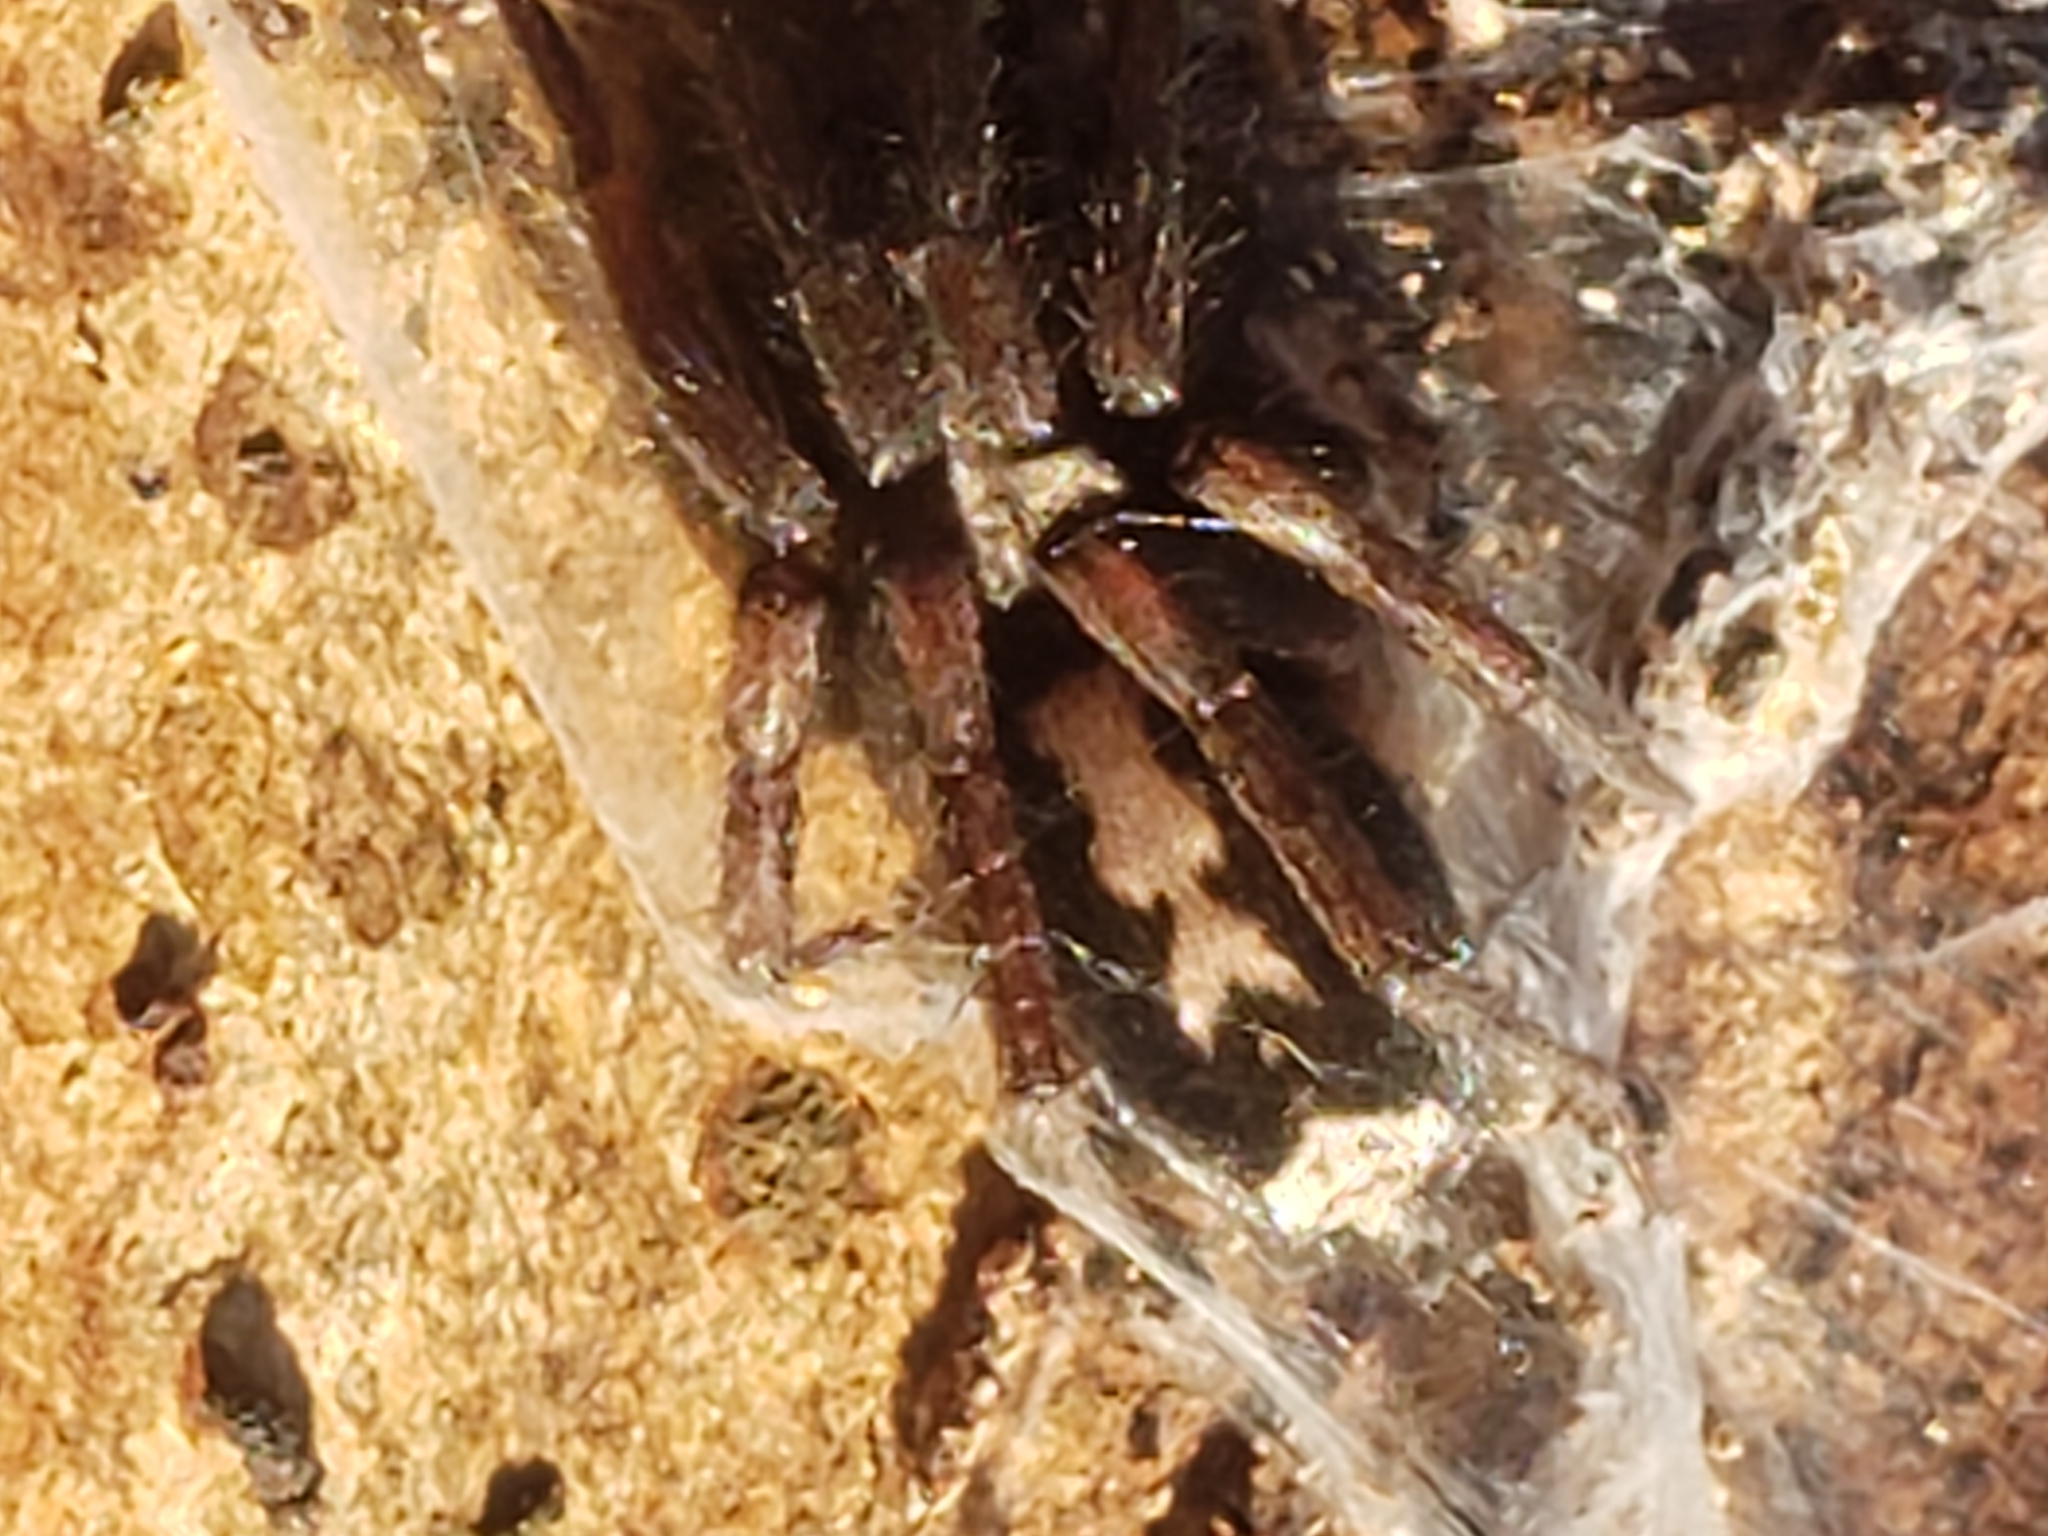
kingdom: Animalia
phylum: Arthropoda
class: Arachnida
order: Araneae
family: Gnaphosidae
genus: Herpyllus
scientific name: Herpyllus ecclesiasticus
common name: Eastern parson spider
